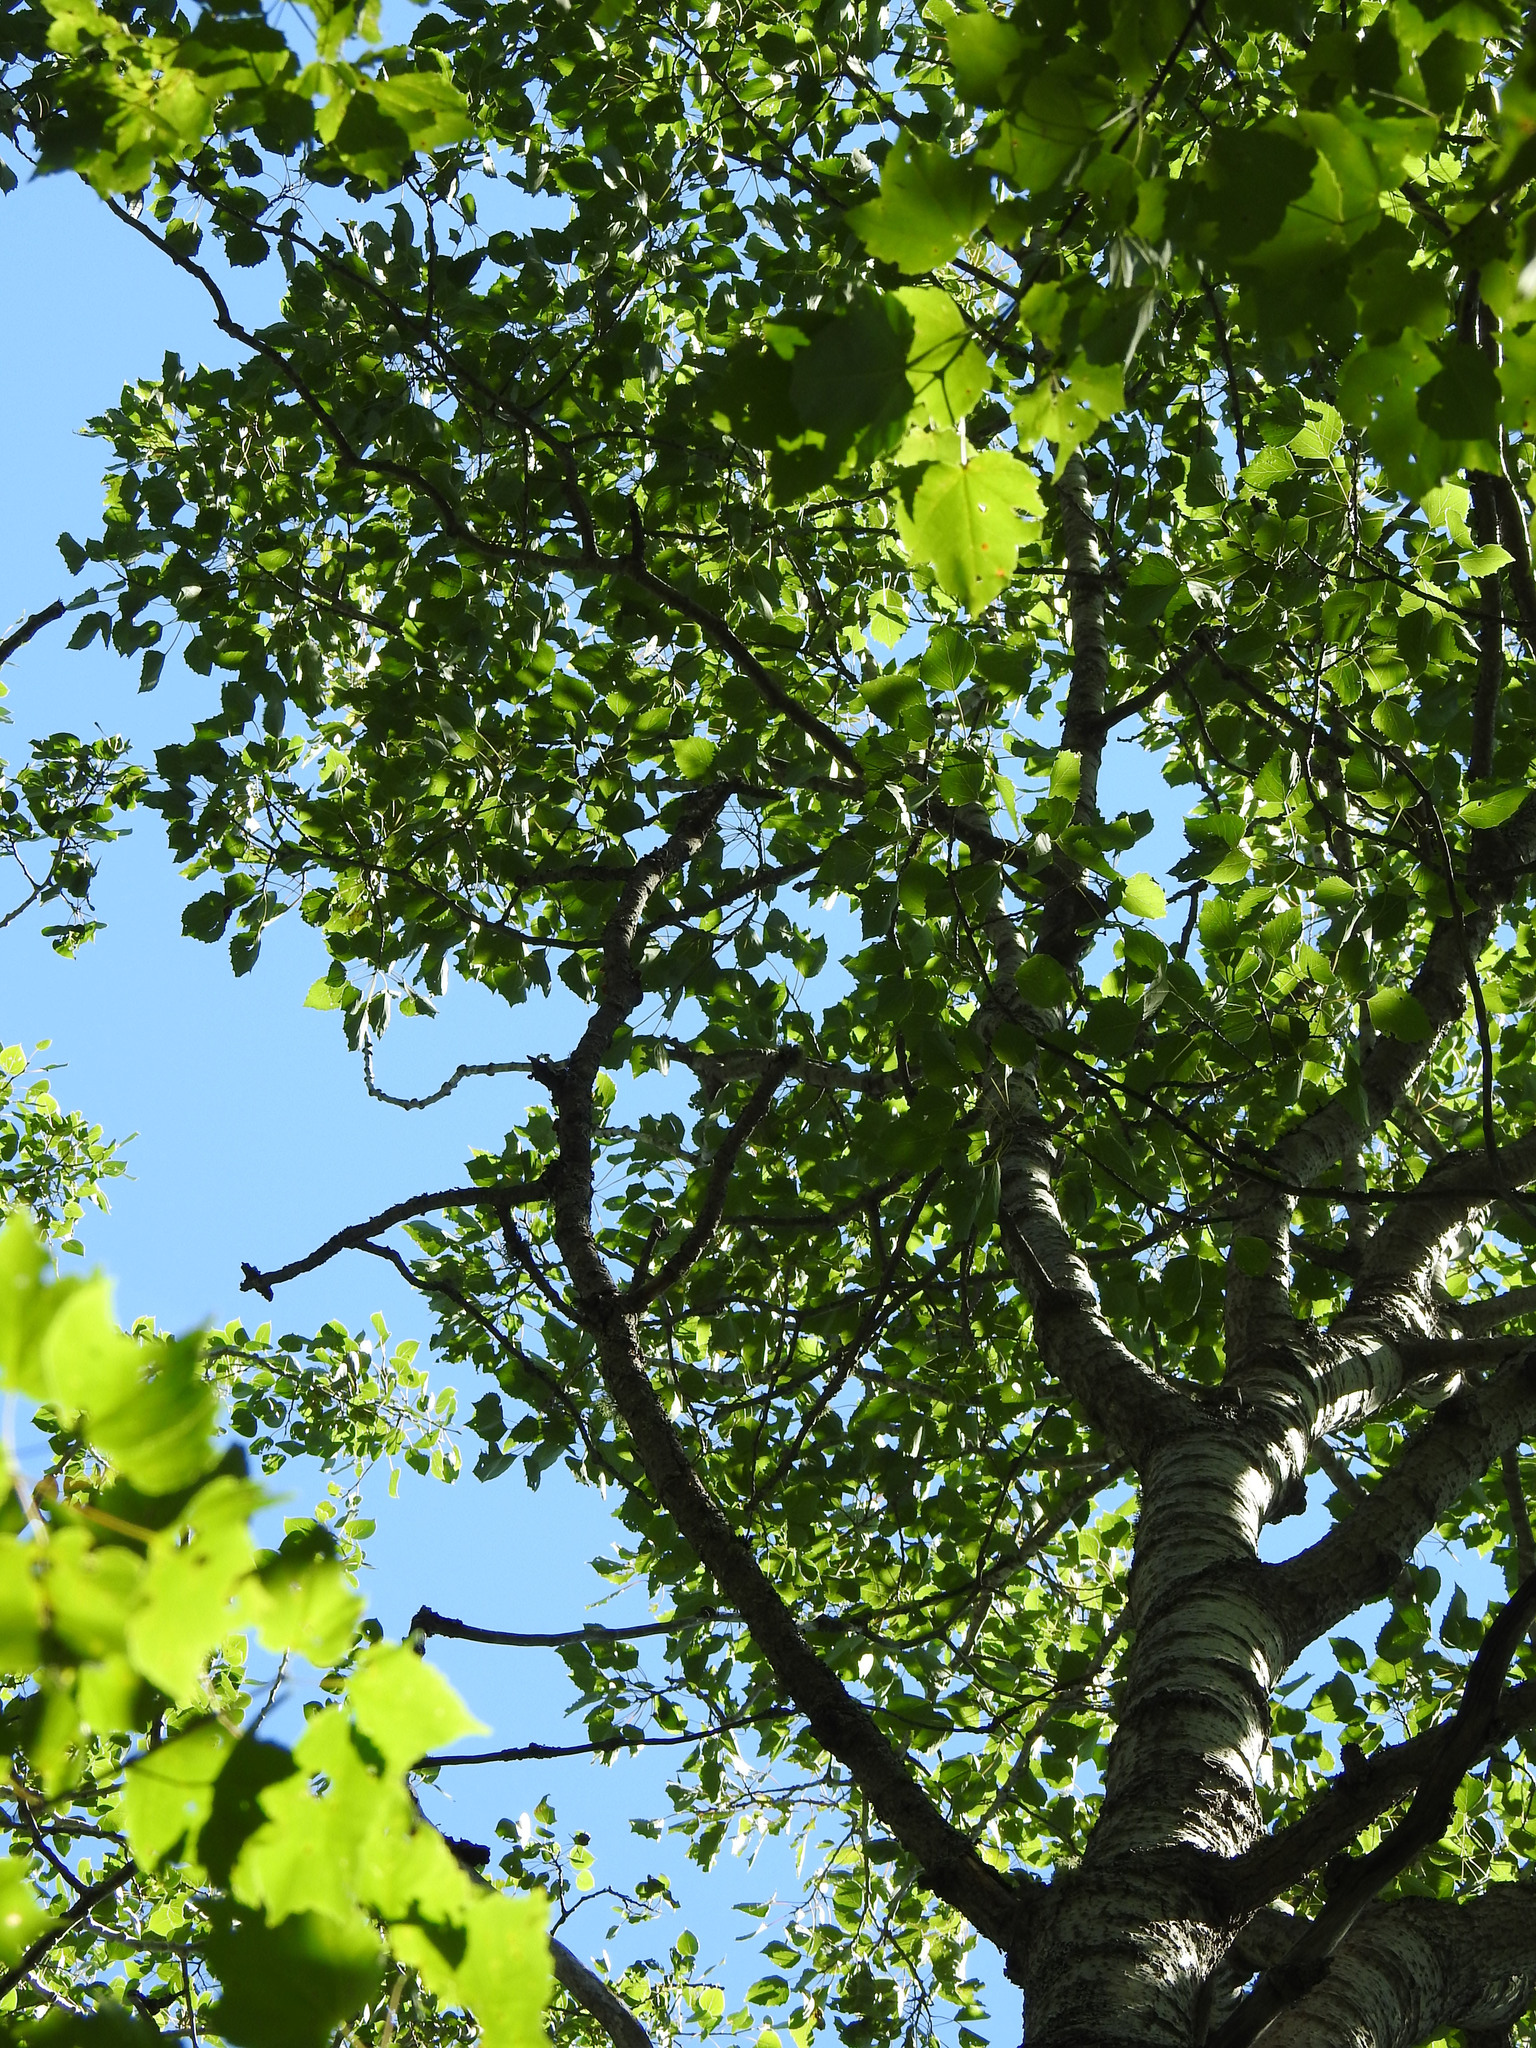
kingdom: Plantae
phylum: Tracheophyta
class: Magnoliopsida
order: Malpighiales
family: Salicaceae
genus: Populus
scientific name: Populus grandidentata
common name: Bigtooth aspen
